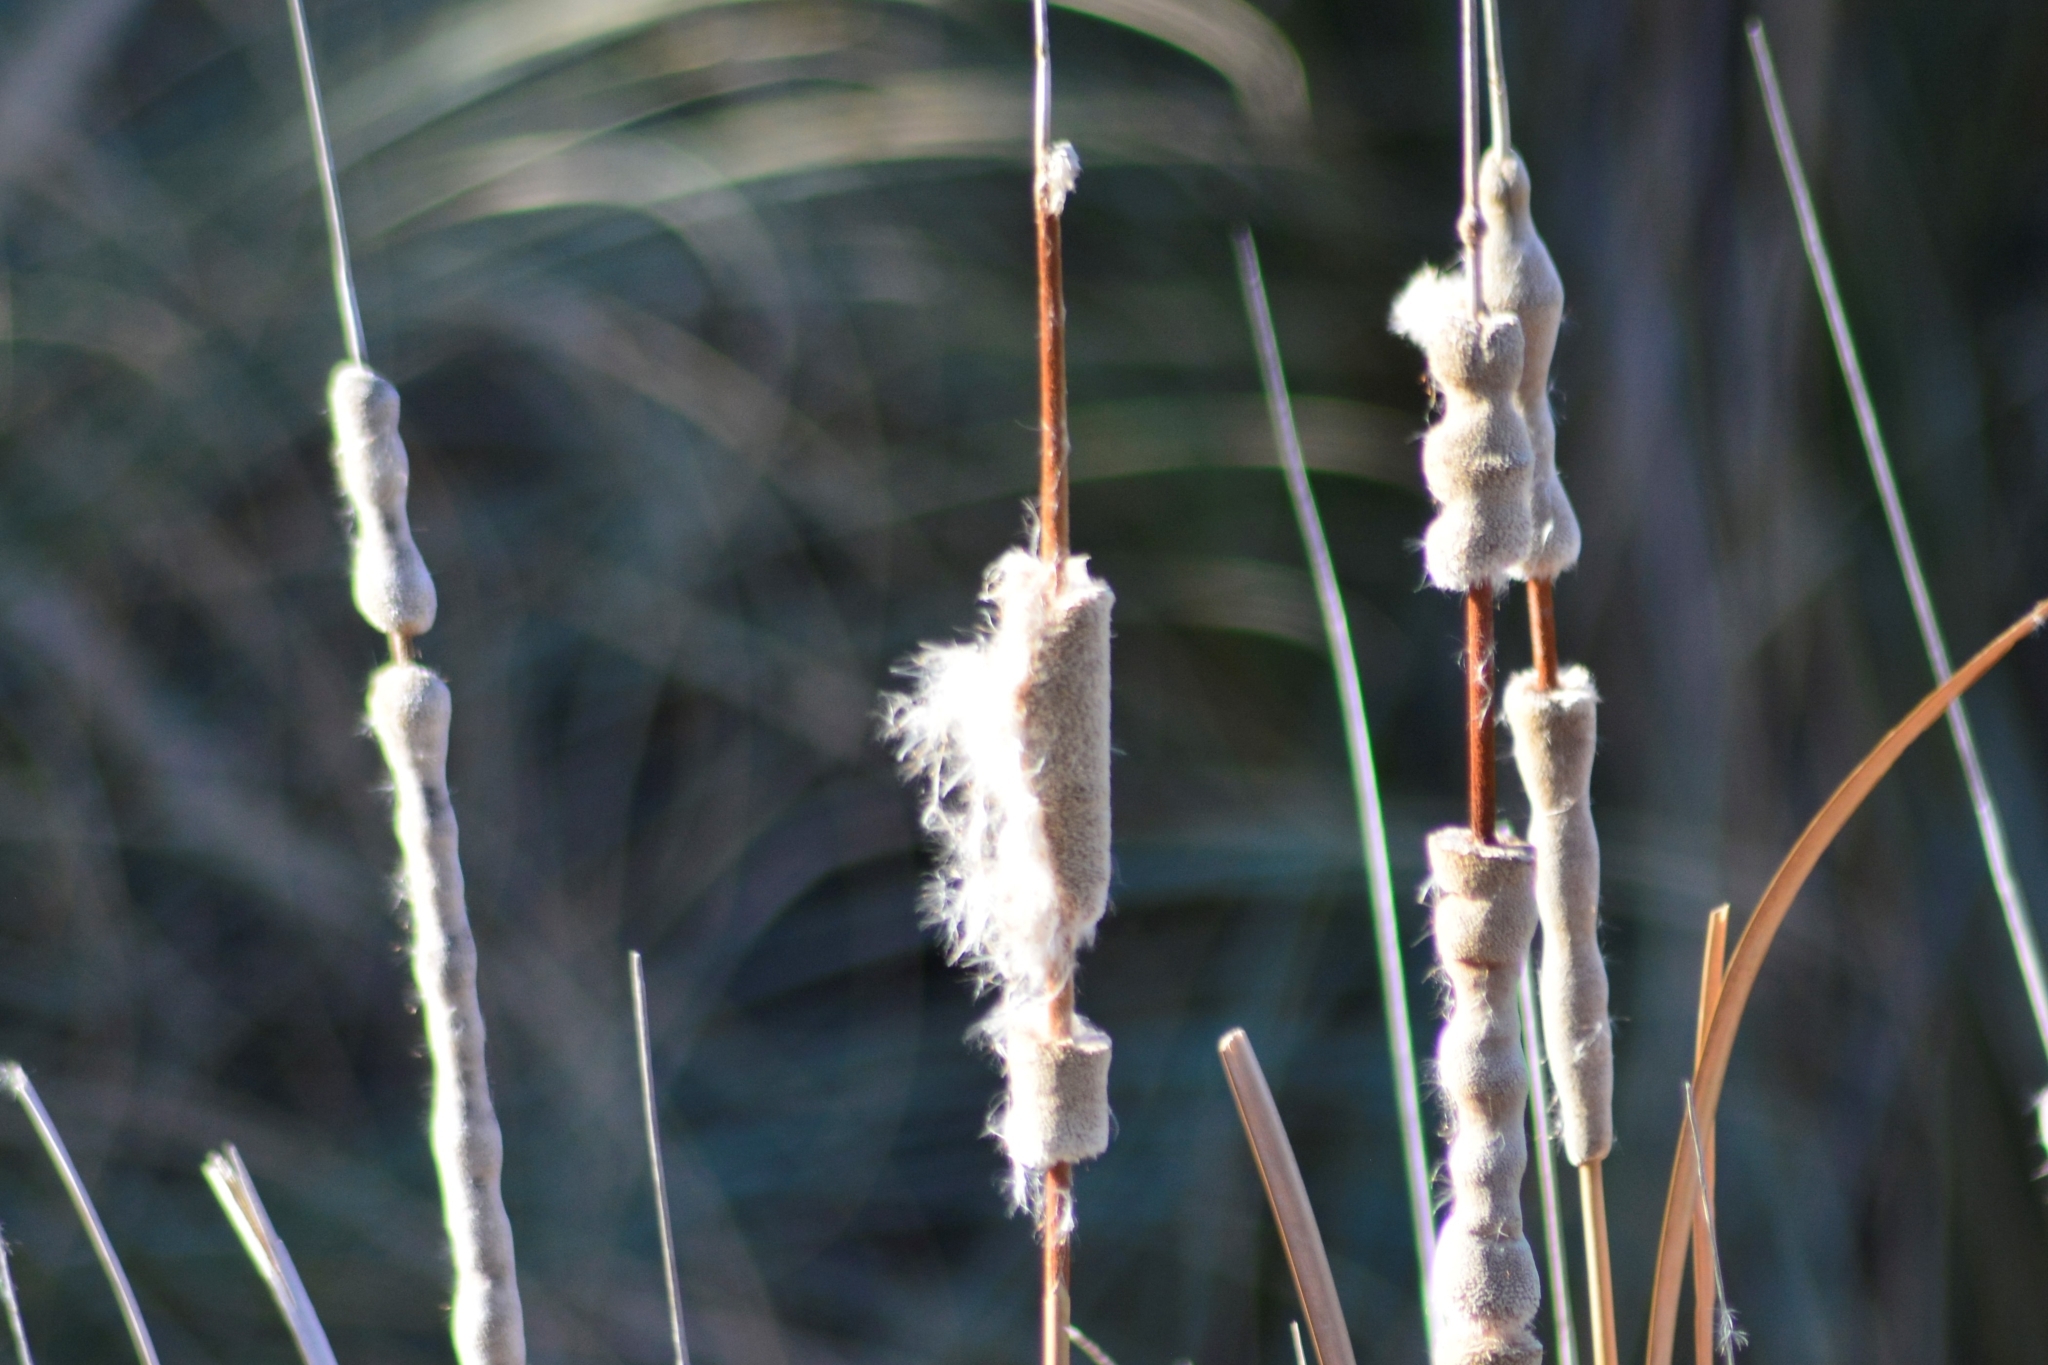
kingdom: Plantae
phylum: Tracheophyta
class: Liliopsida
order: Poales
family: Typhaceae
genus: Typha
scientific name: Typha latifolia
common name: Broadleaf cattail
